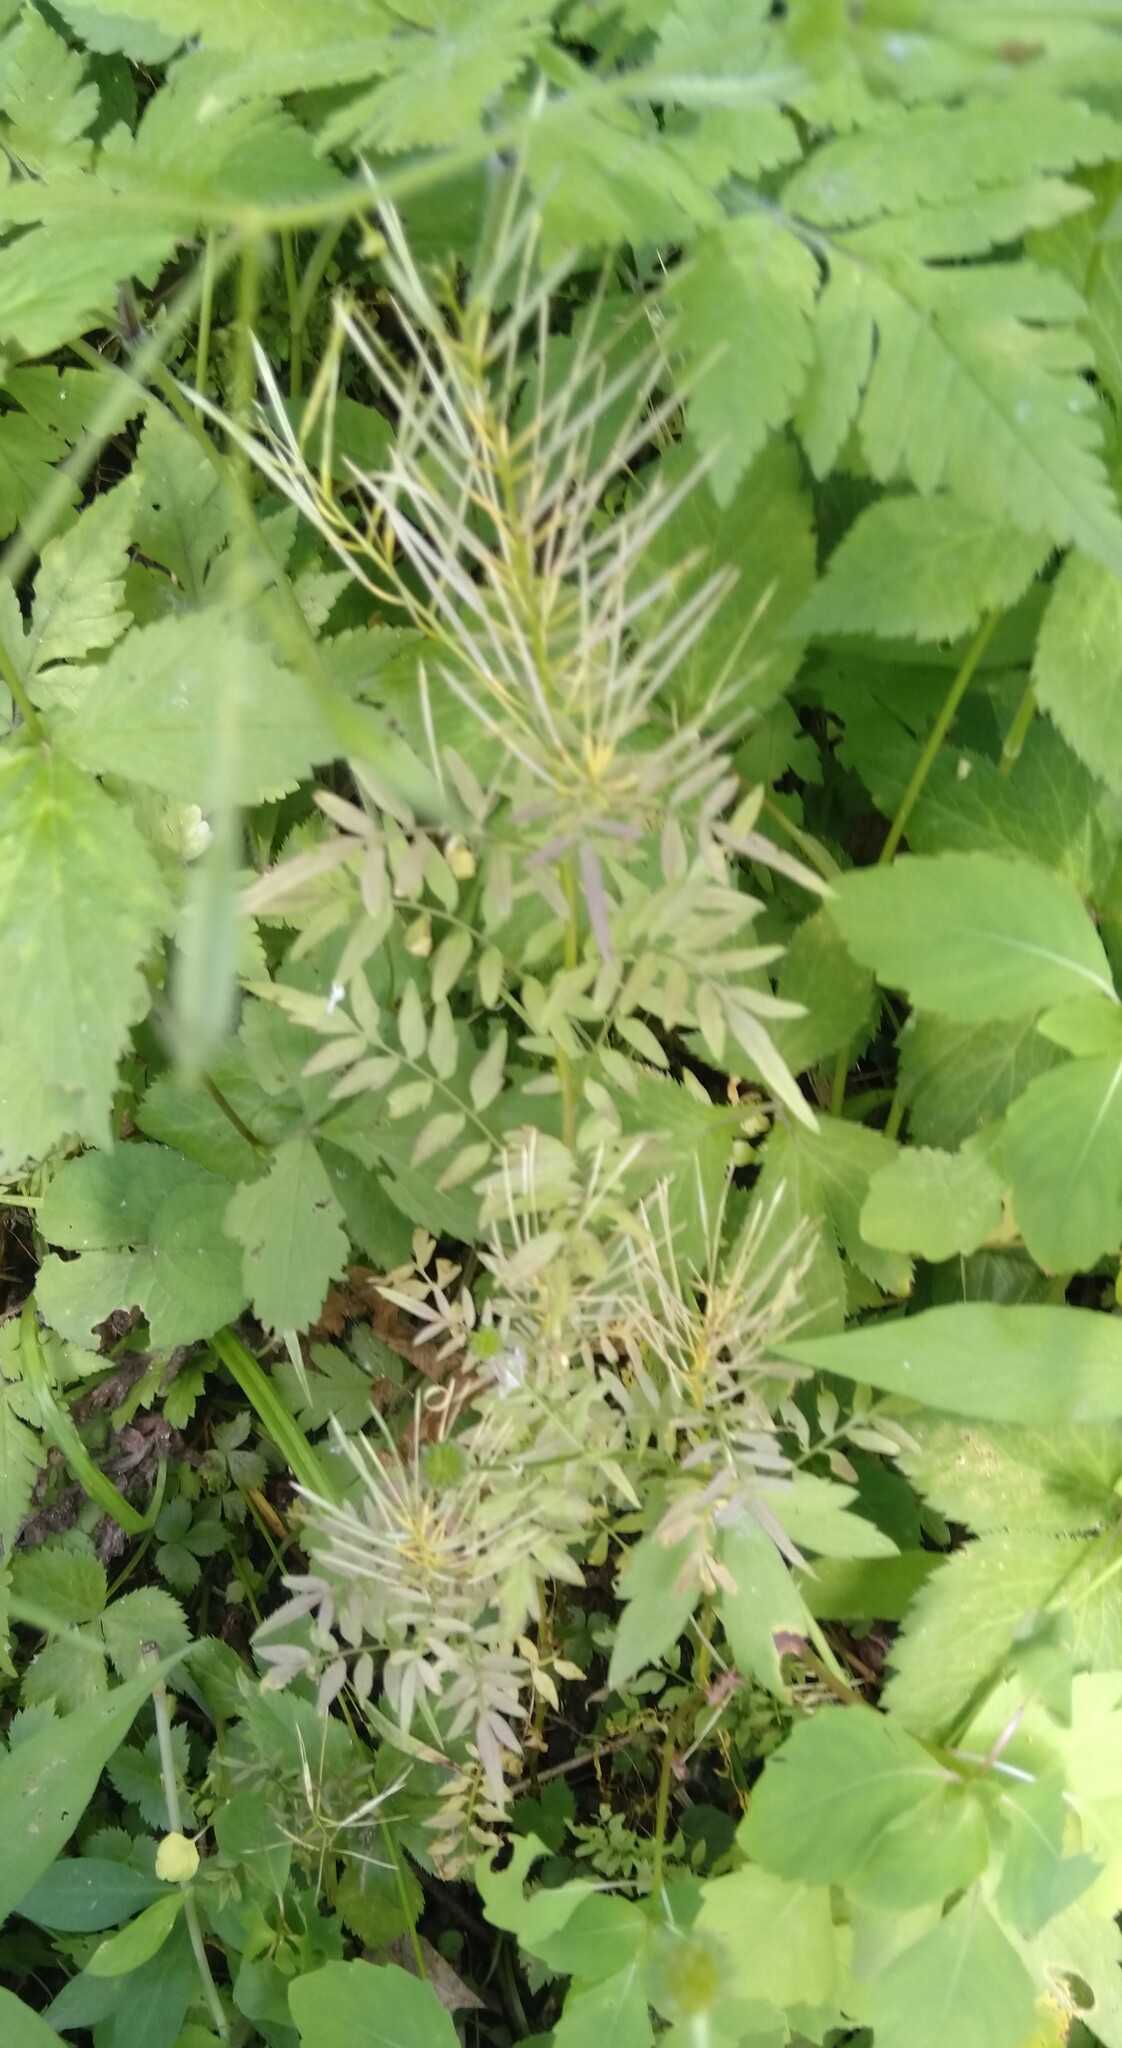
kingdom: Plantae
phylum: Tracheophyta
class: Magnoliopsida
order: Brassicales
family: Brassicaceae
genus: Cardamine
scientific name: Cardamine impatiens
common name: Narrow-leaved bitter-cress
